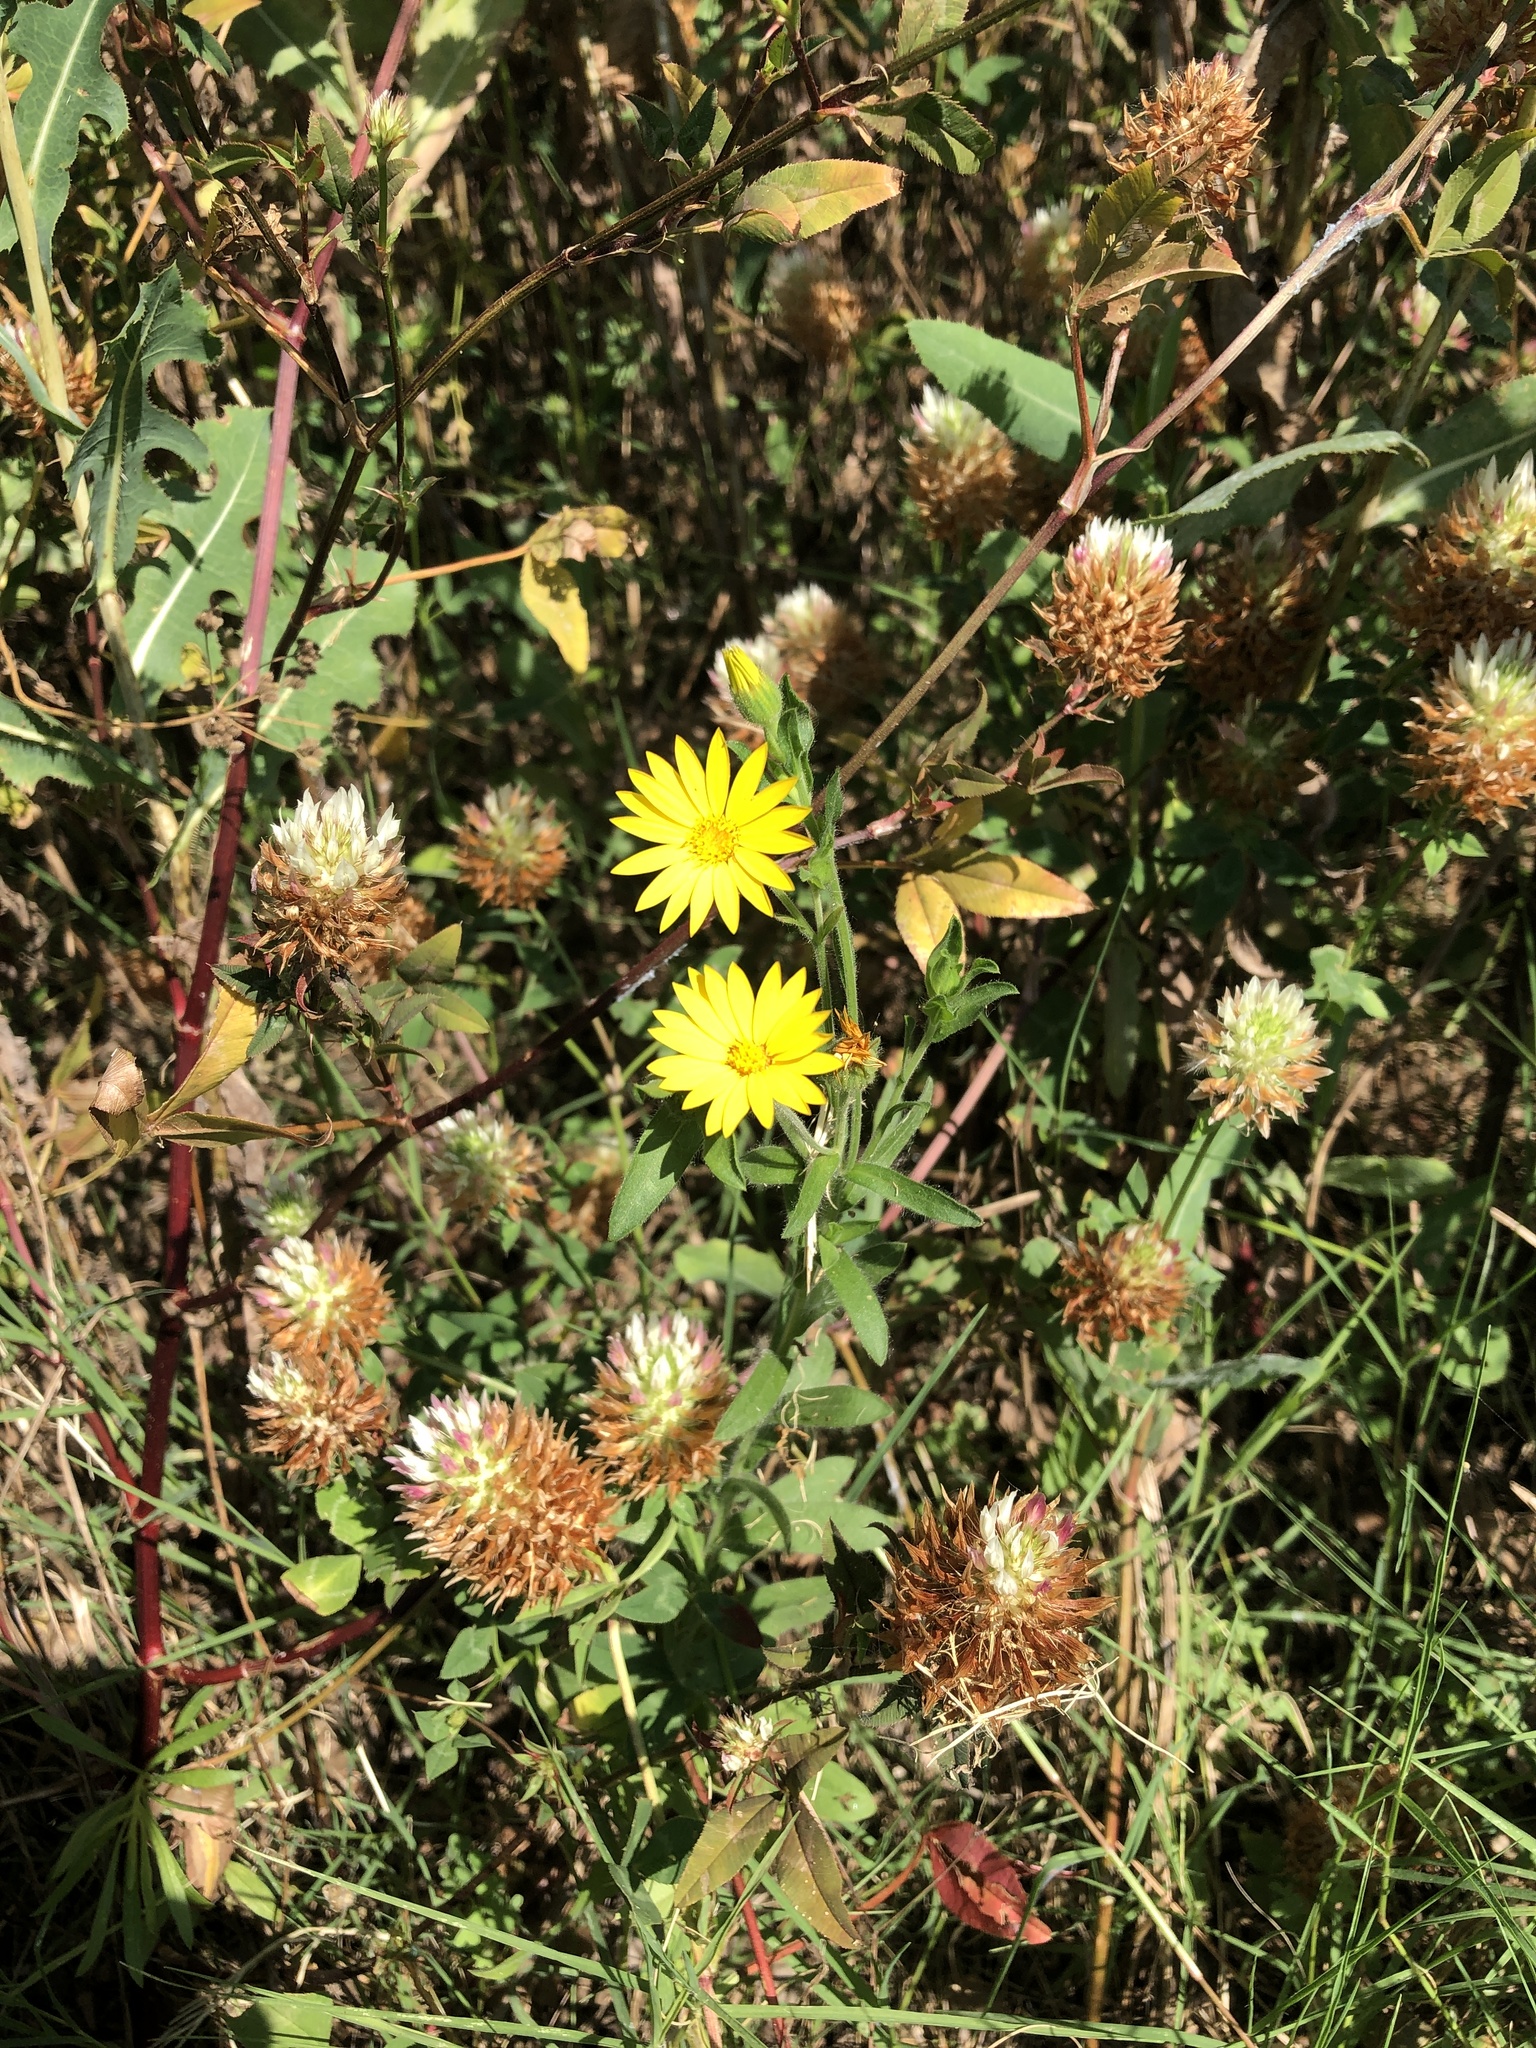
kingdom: Plantae
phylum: Tracheophyta
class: Magnoliopsida
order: Asterales
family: Asteraceae
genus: Bradburia
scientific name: Bradburia pilosa
